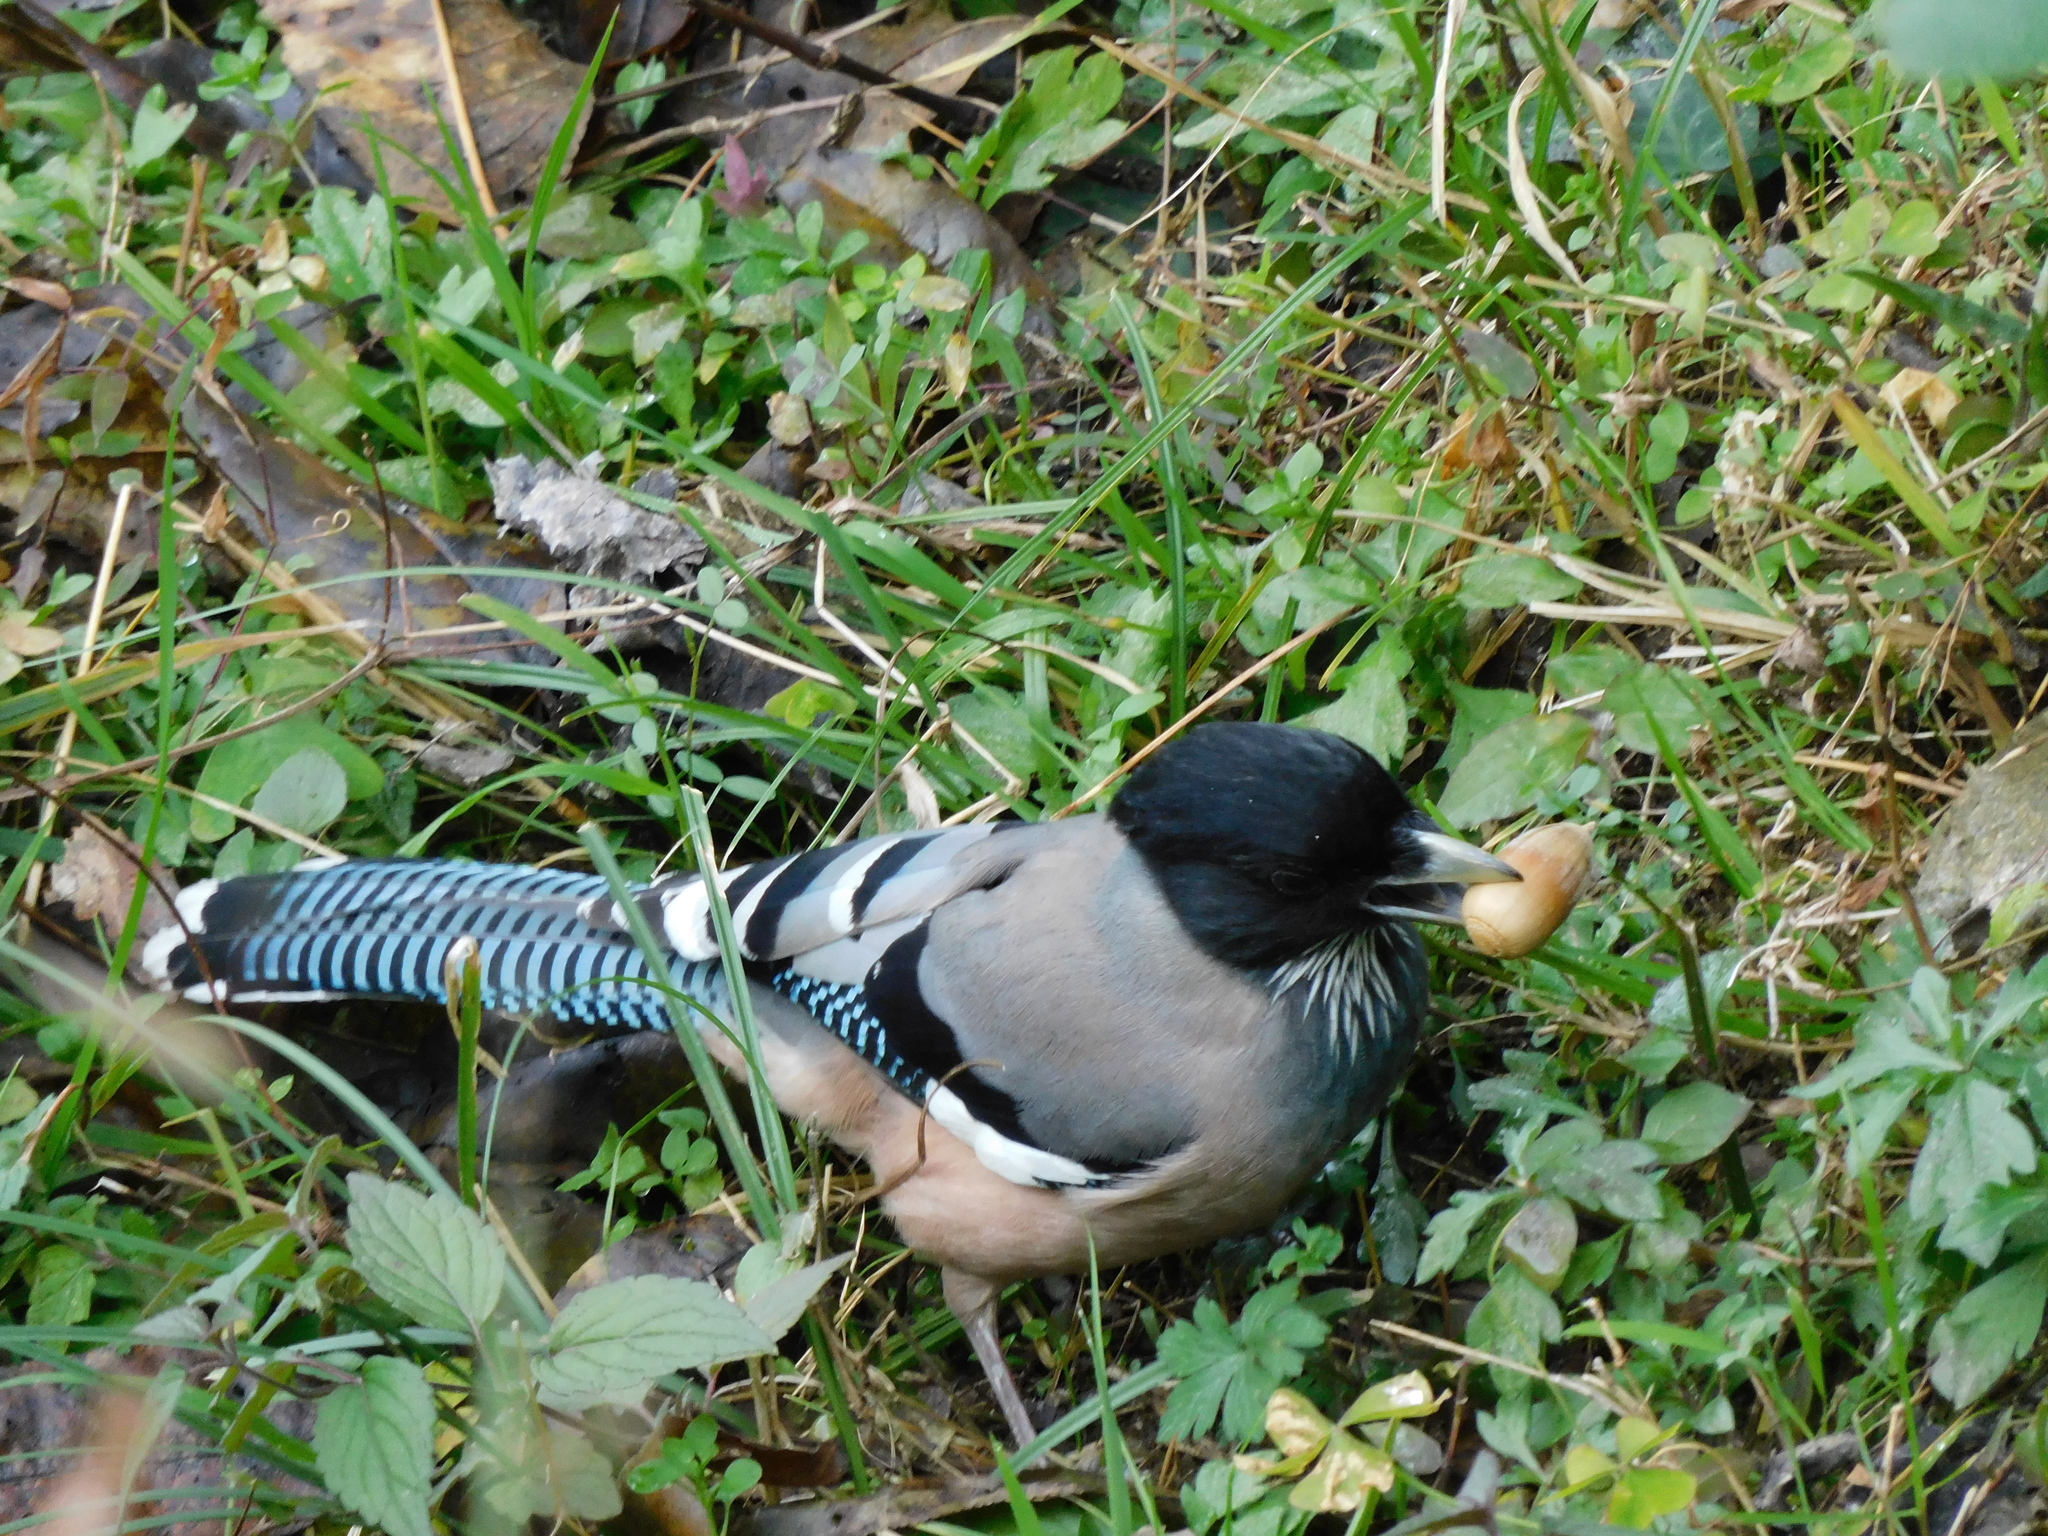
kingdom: Animalia
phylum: Chordata
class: Aves
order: Passeriformes
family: Corvidae
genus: Garrulus
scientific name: Garrulus lanceolatus
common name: Black-headed jay
